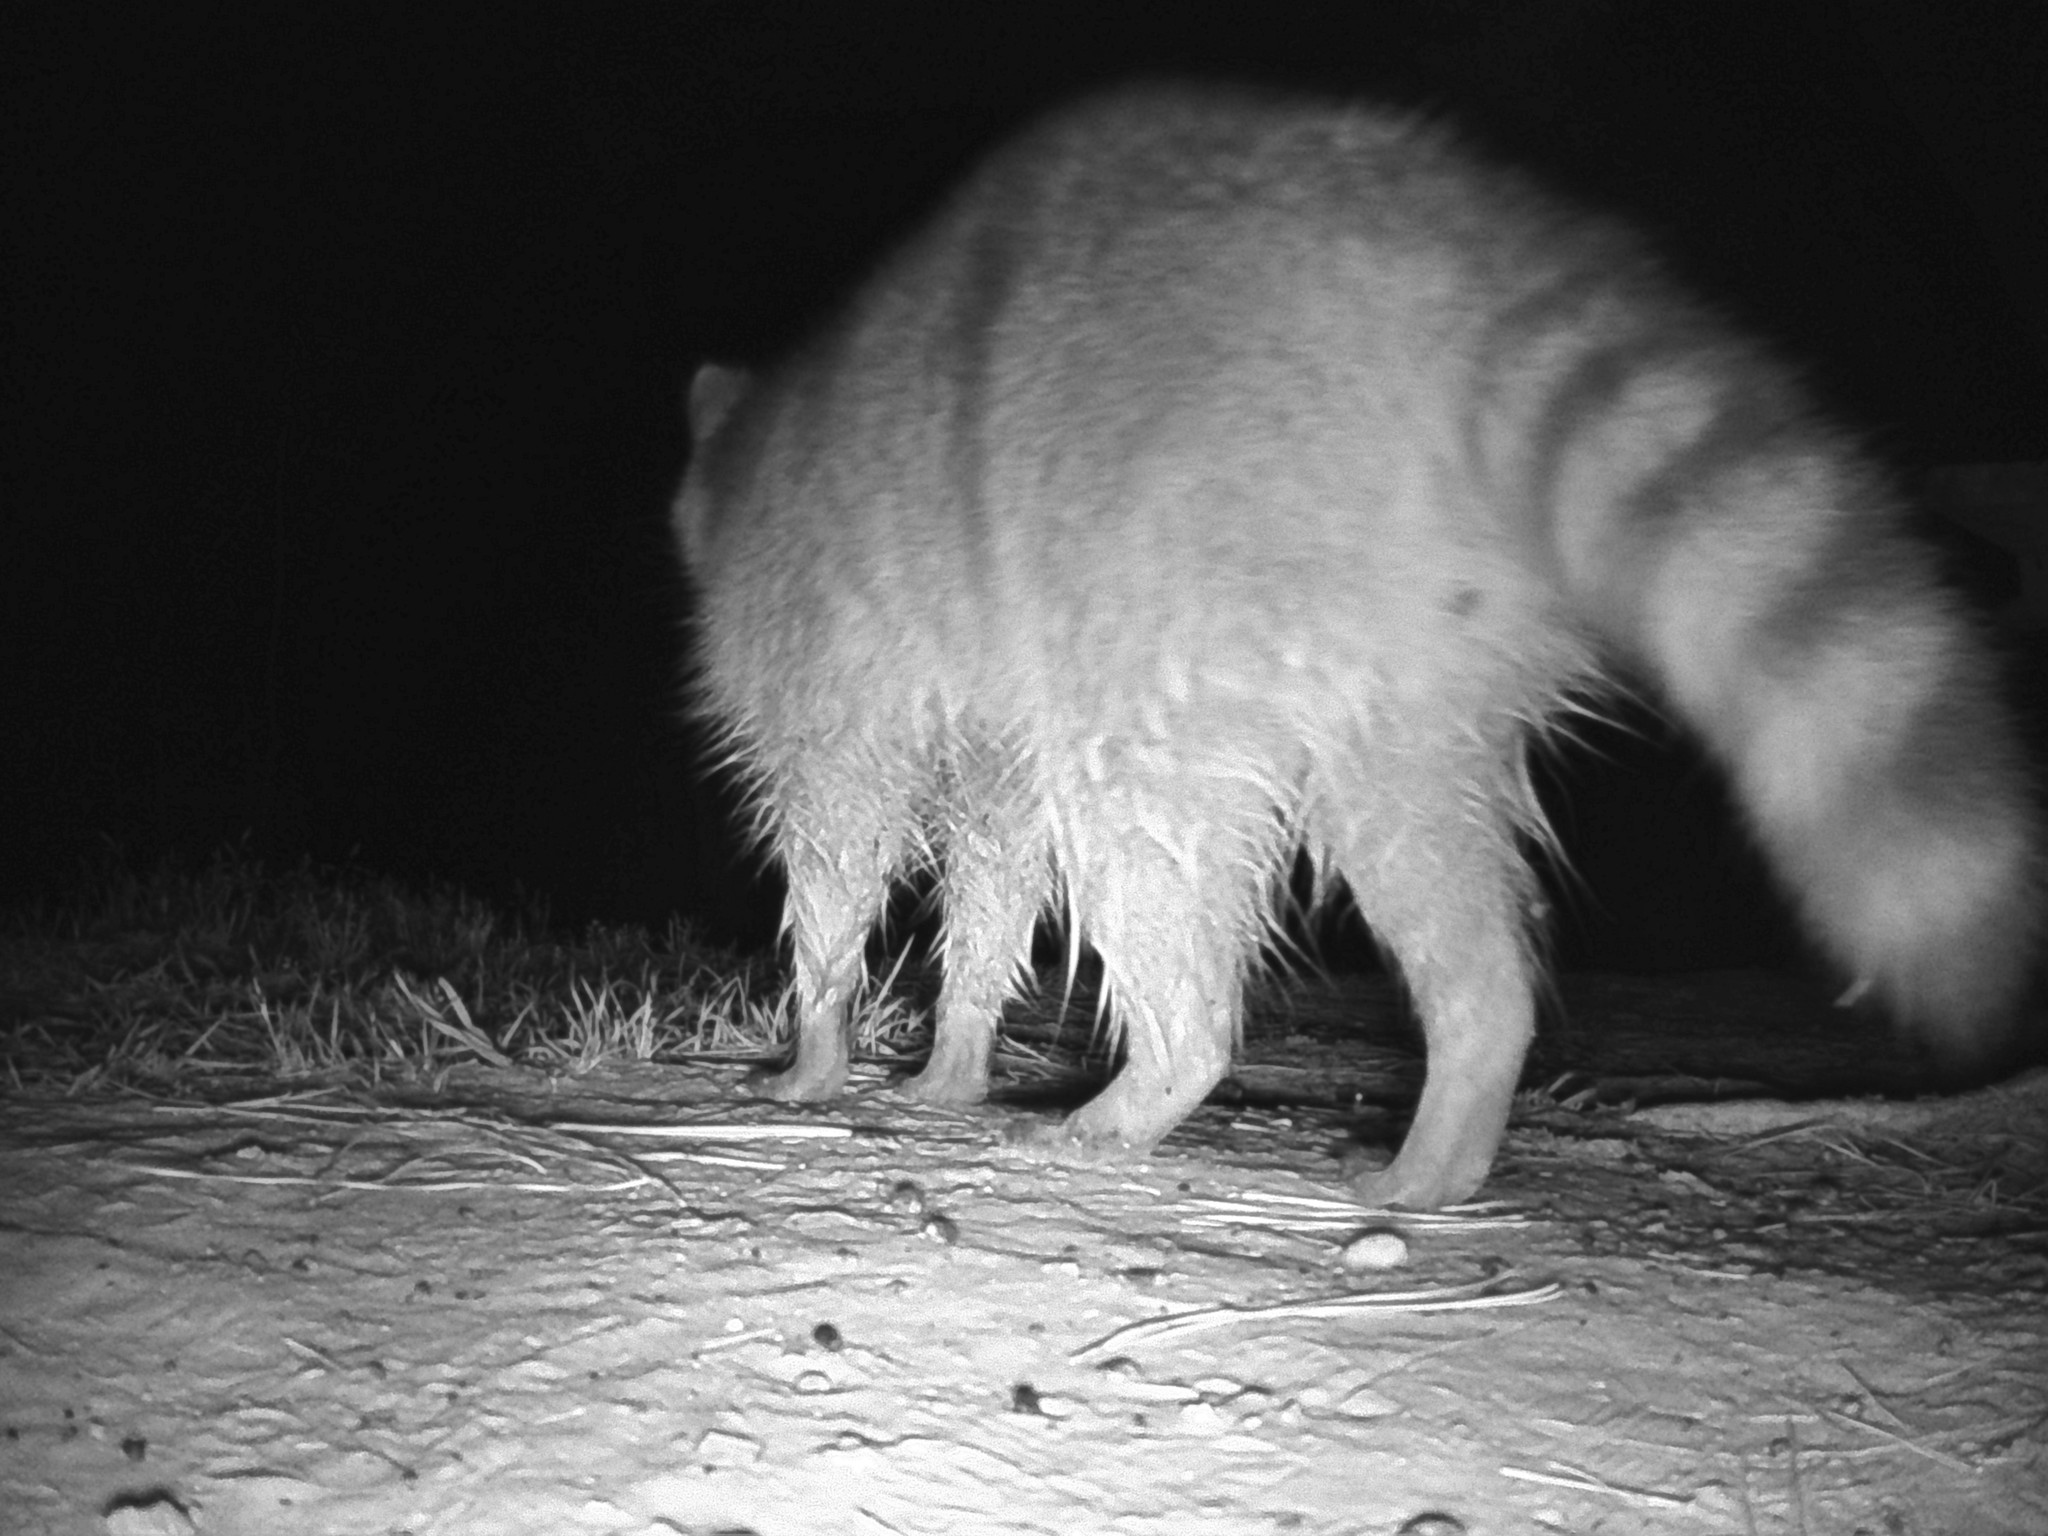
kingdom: Animalia
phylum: Chordata
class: Mammalia
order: Carnivora
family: Procyonidae
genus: Procyon
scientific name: Procyon lotor
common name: Raccoon
